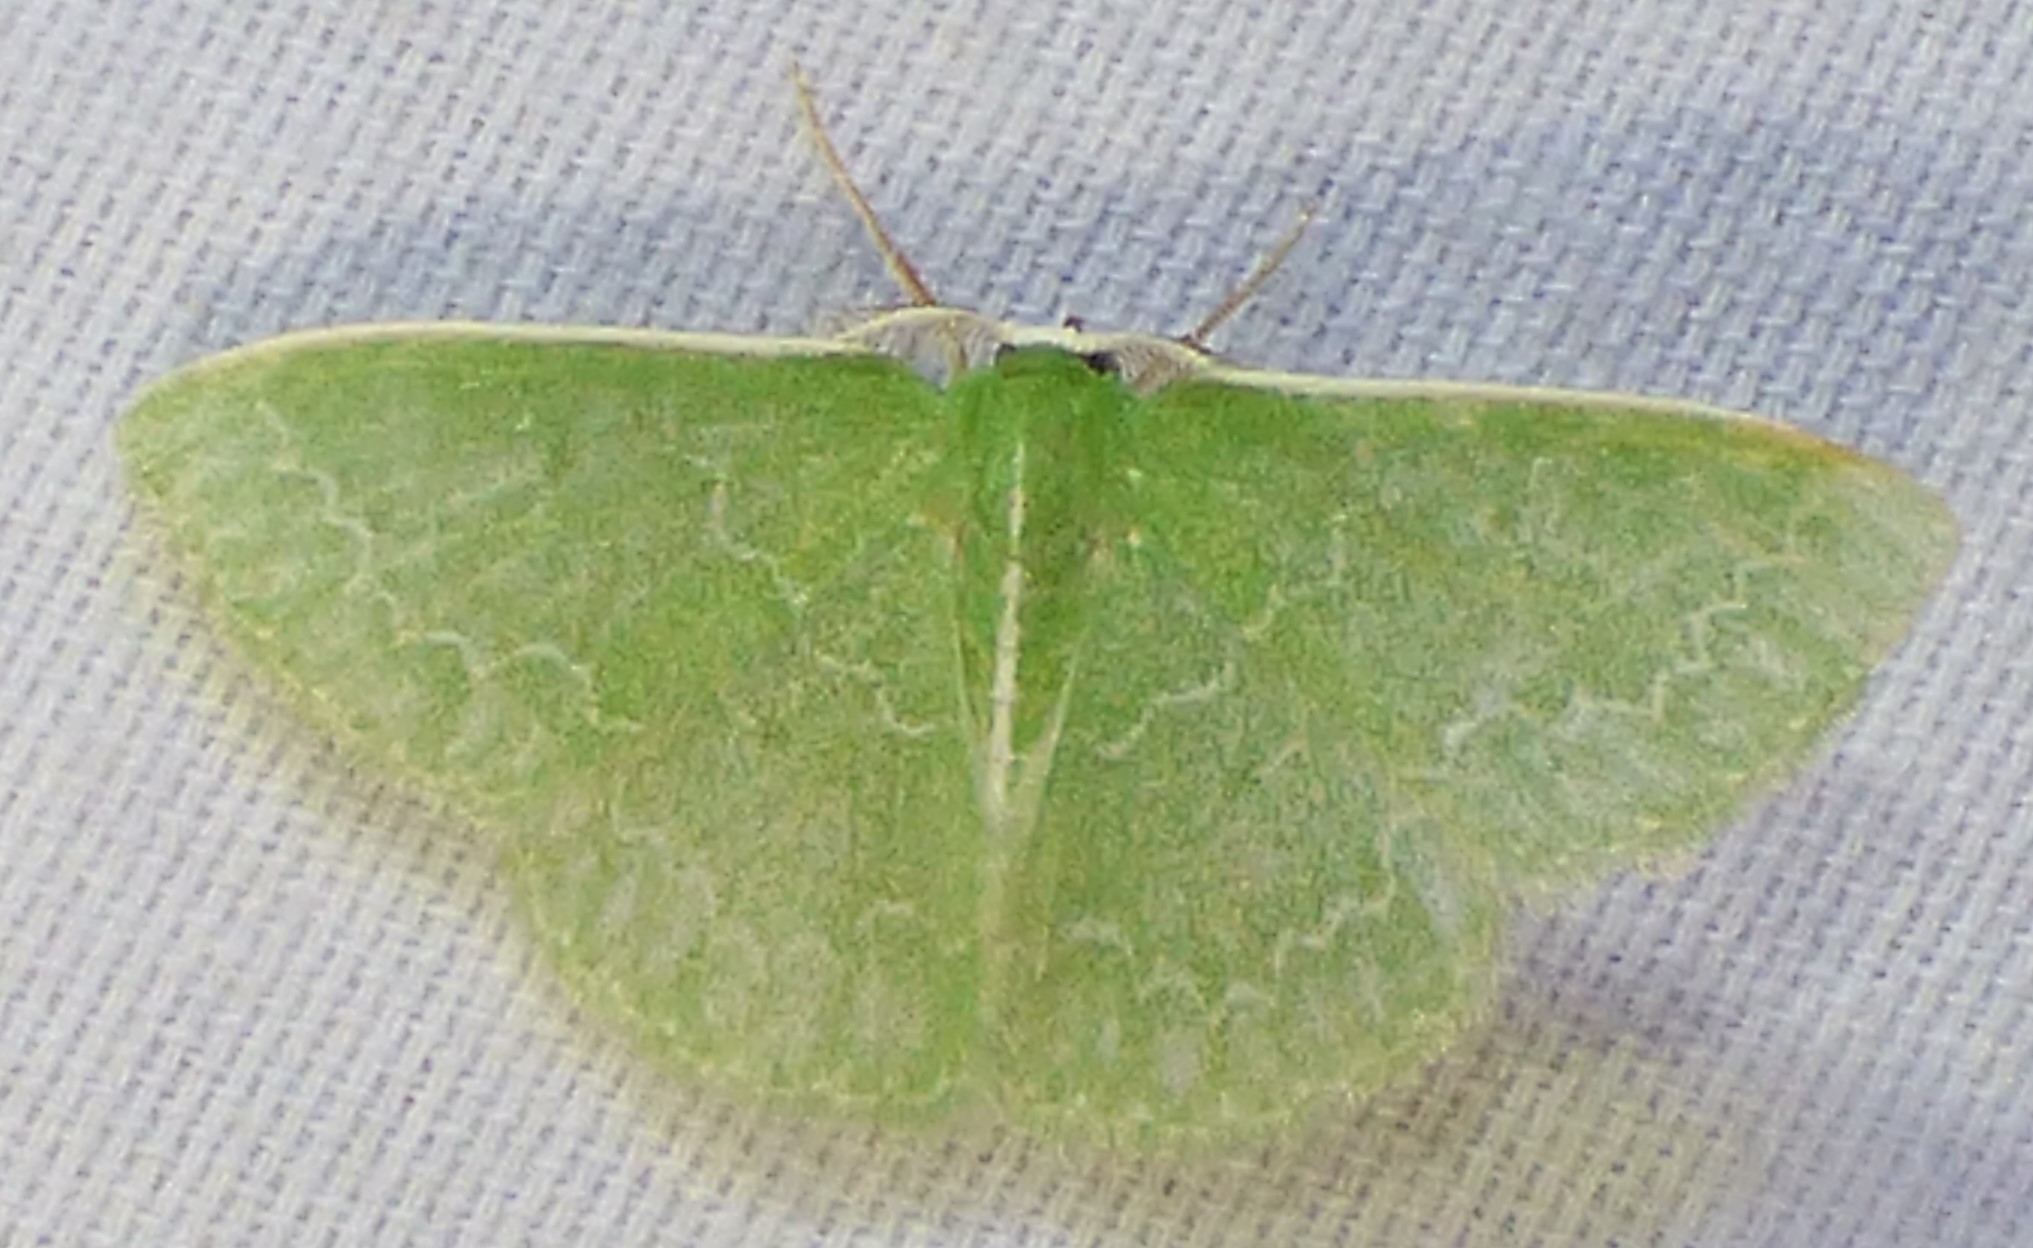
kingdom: Animalia
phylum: Arthropoda
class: Insecta
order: Lepidoptera
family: Geometridae
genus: Synchlora
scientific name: Synchlora frondaria
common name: Southern emerald
